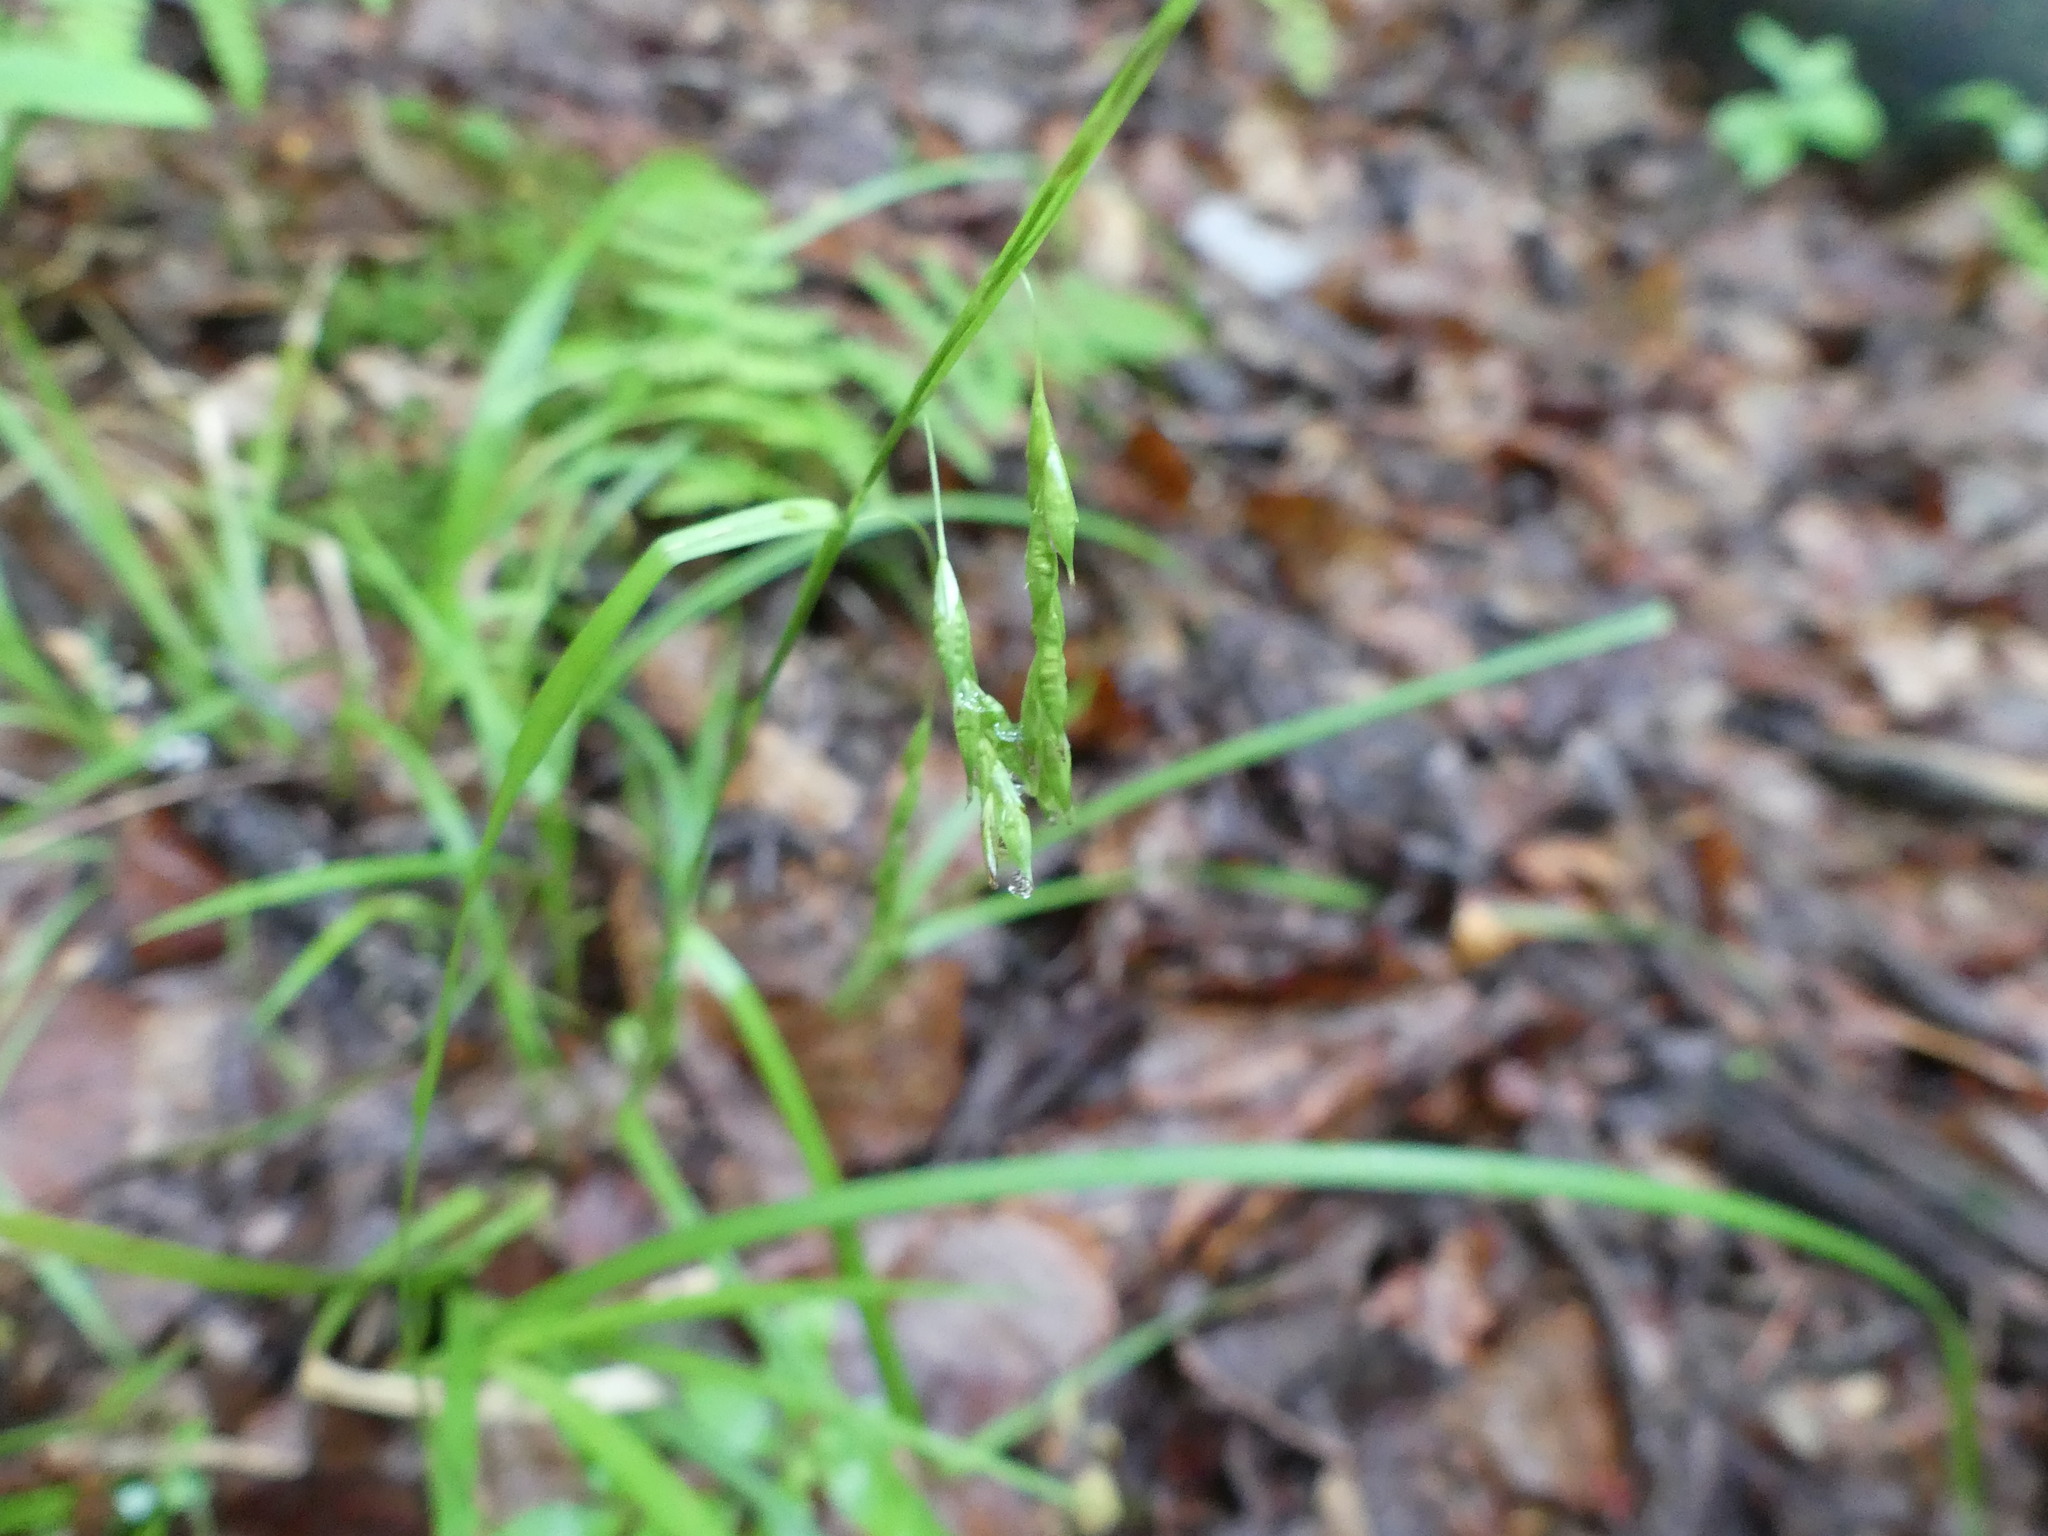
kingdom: Plantae
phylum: Tracheophyta
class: Liliopsida
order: Poales
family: Cyperaceae
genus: Carex
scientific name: Carex debilis
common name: White-edge sedge
